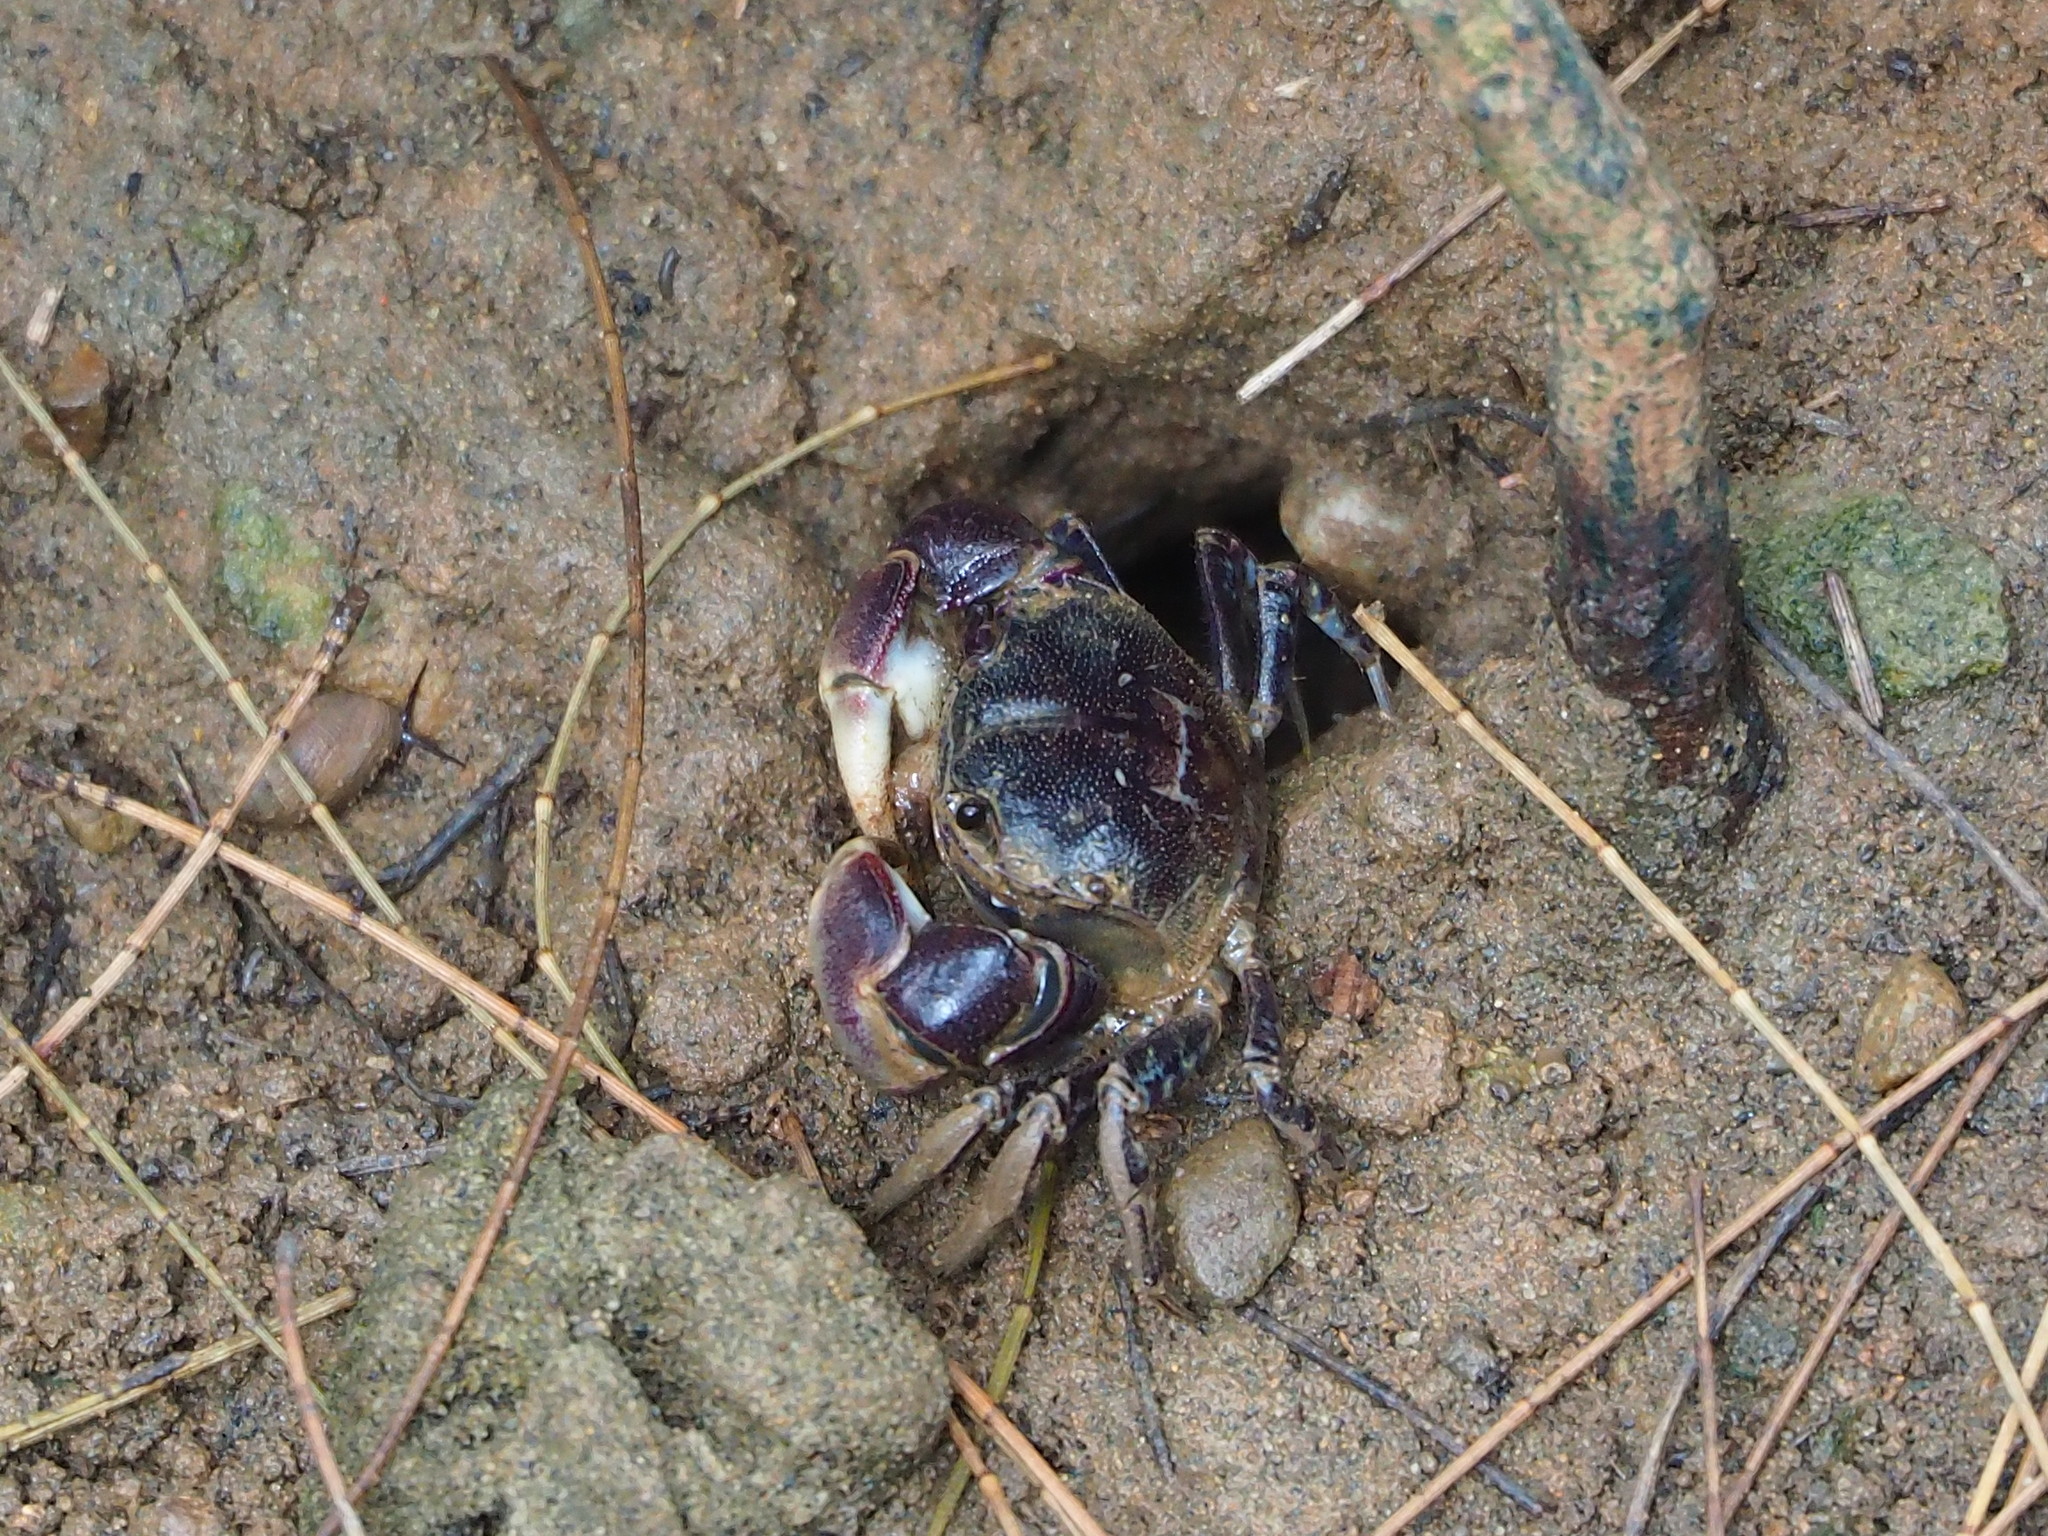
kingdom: Animalia
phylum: Arthropoda
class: Malacostraca
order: Decapoda
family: Varunidae
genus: Pseudohelice
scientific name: Pseudohelice subquadrata
